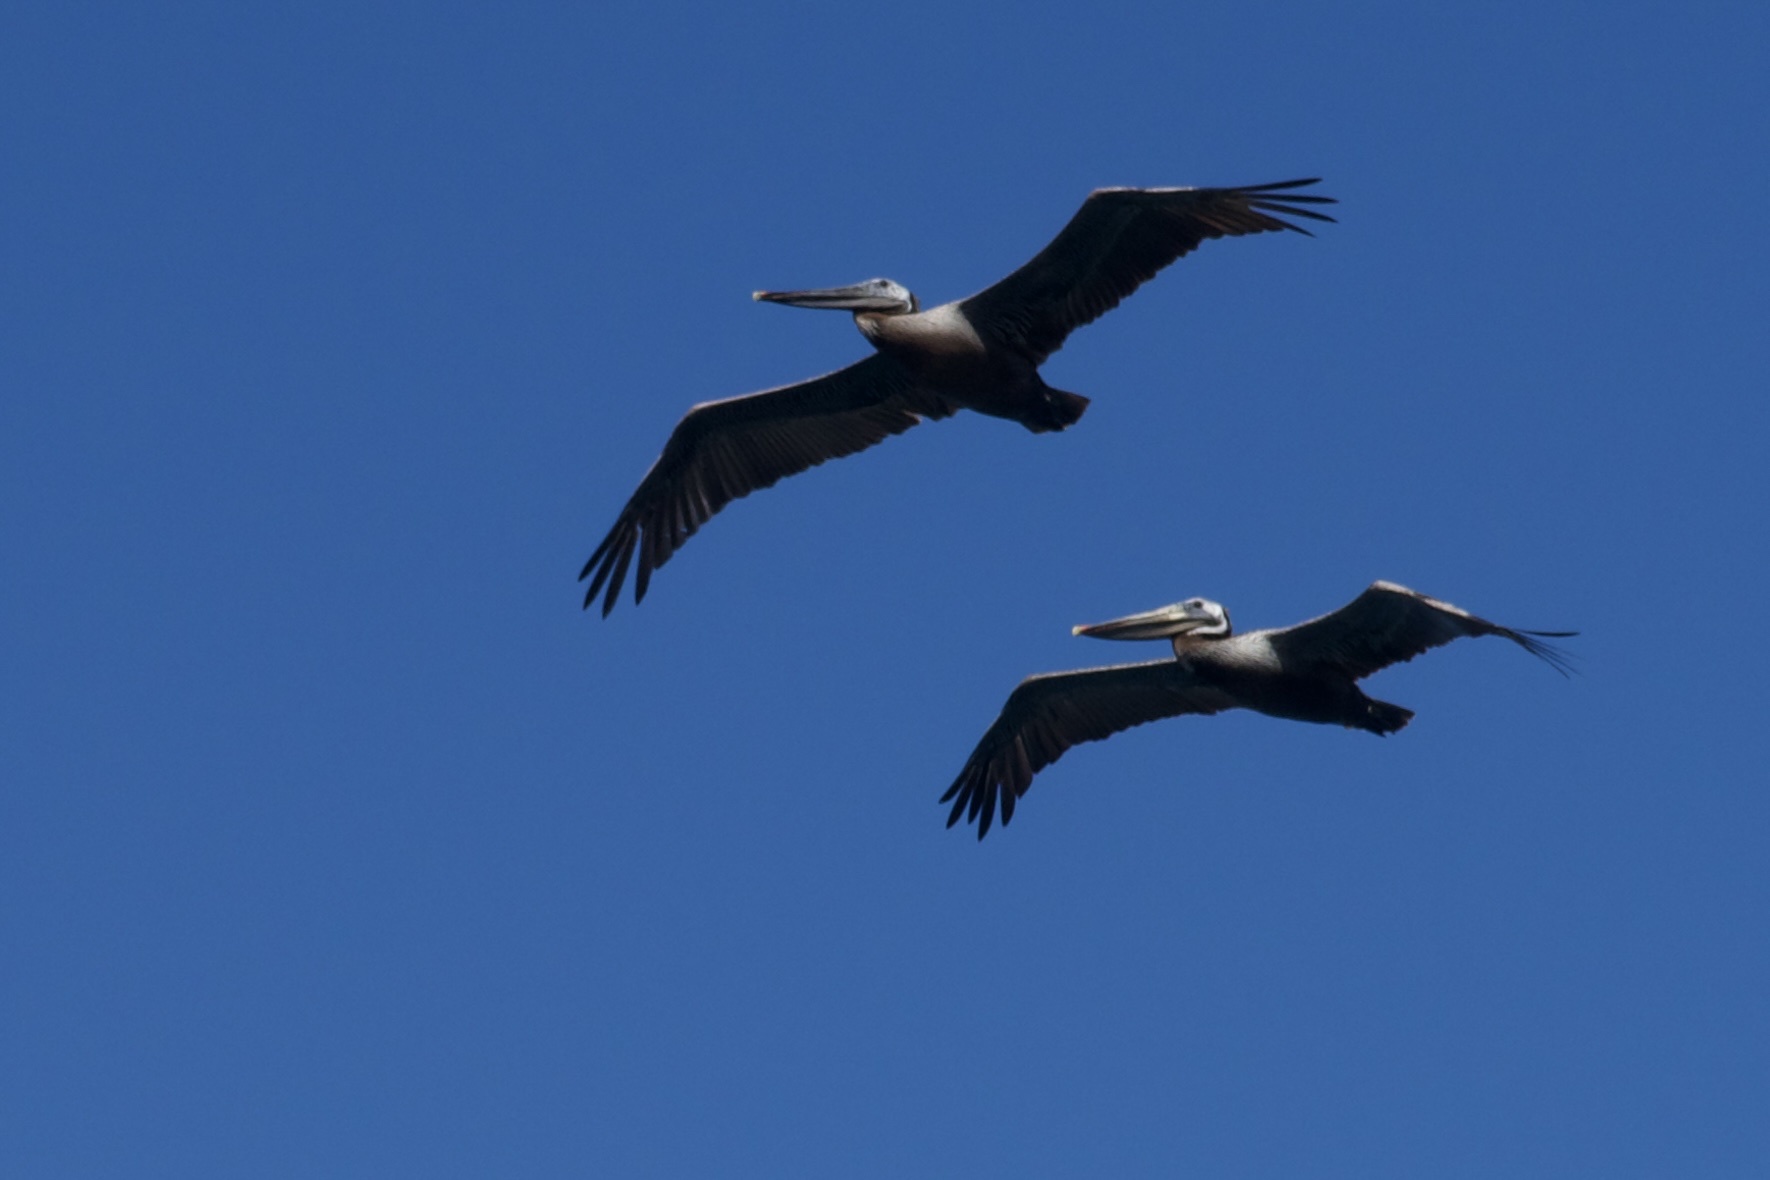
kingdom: Animalia
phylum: Chordata
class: Aves
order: Pelecaniformes
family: Pelecanidae
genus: Pelecanus
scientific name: Pelecanus occidentalis
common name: Brown pelican
